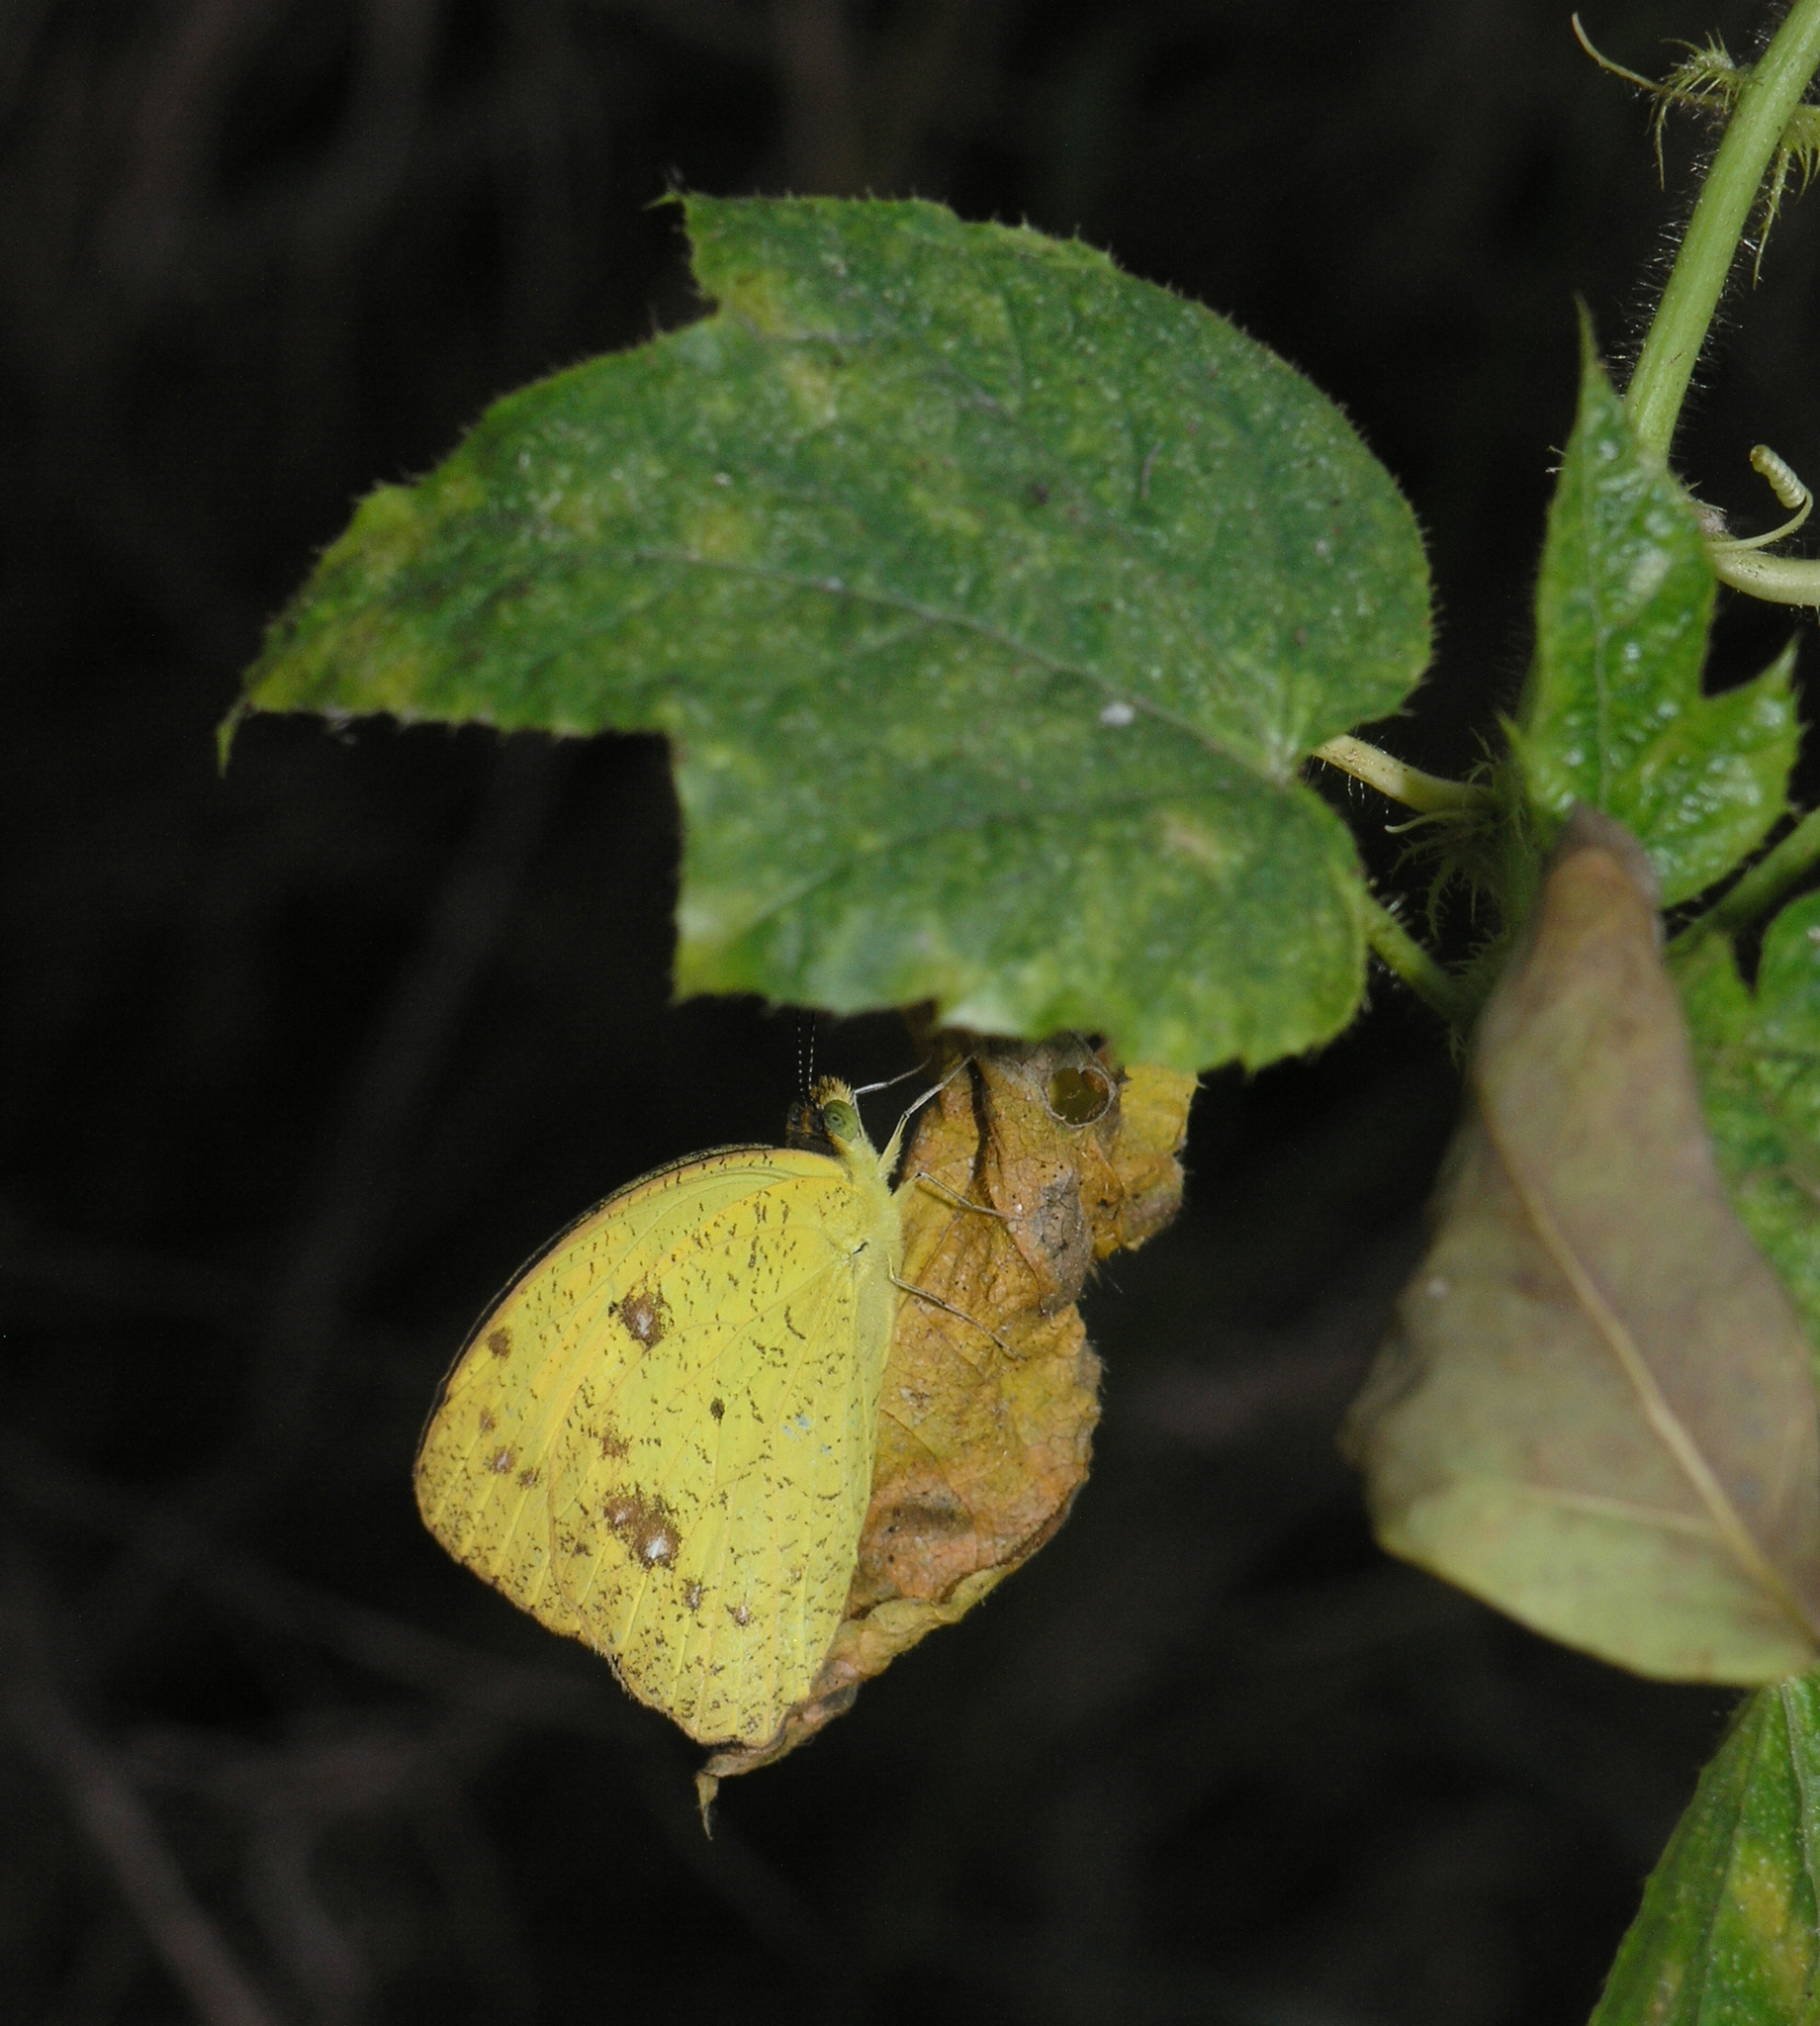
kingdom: Animalia
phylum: Arthropoda
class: Insecta
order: Lepidoptera
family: Pieridae
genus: Ixias
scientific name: Ixias pyrene
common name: Yellow orange tip
